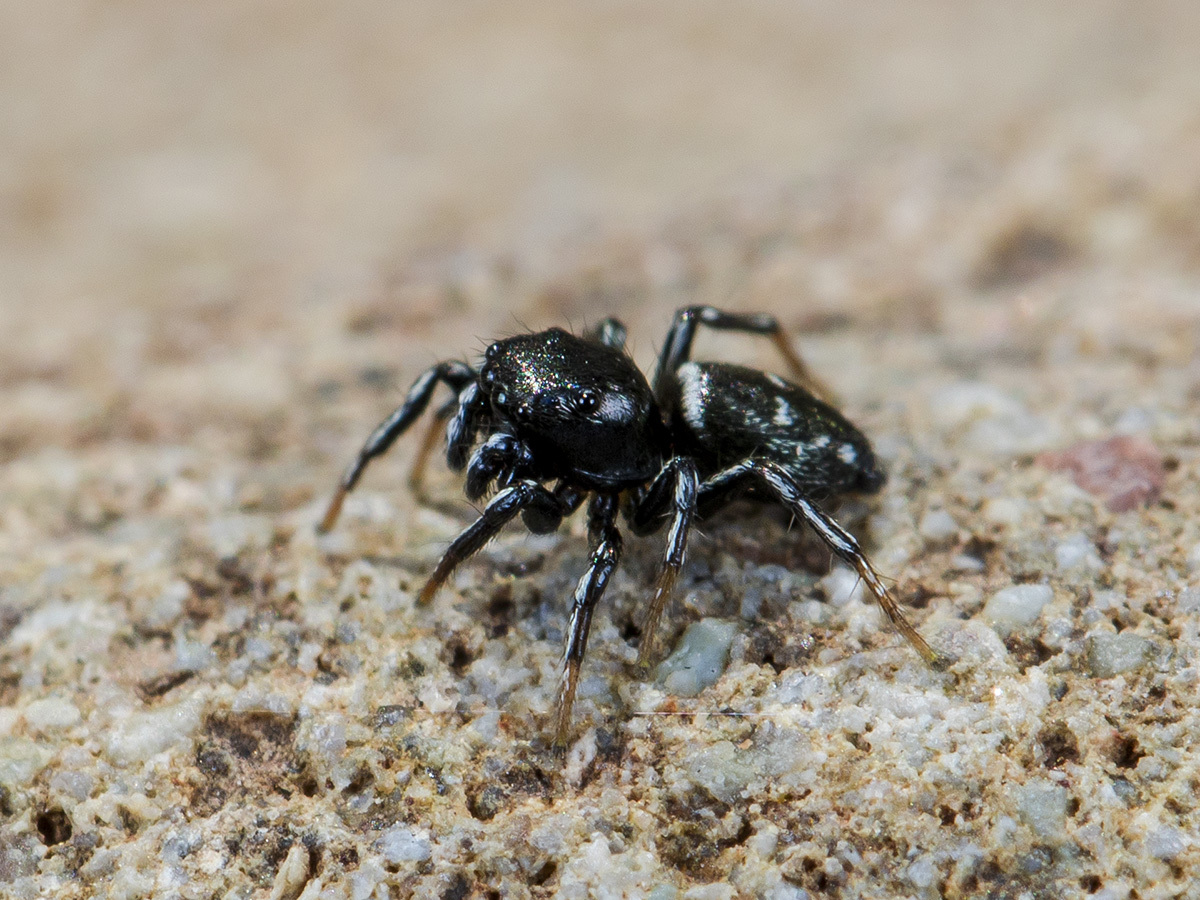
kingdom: Animalia
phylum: Arthropoda
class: Arachnida
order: Araneae
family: Salticidae
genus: Heliophanus
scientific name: Heliophanus curvidens
